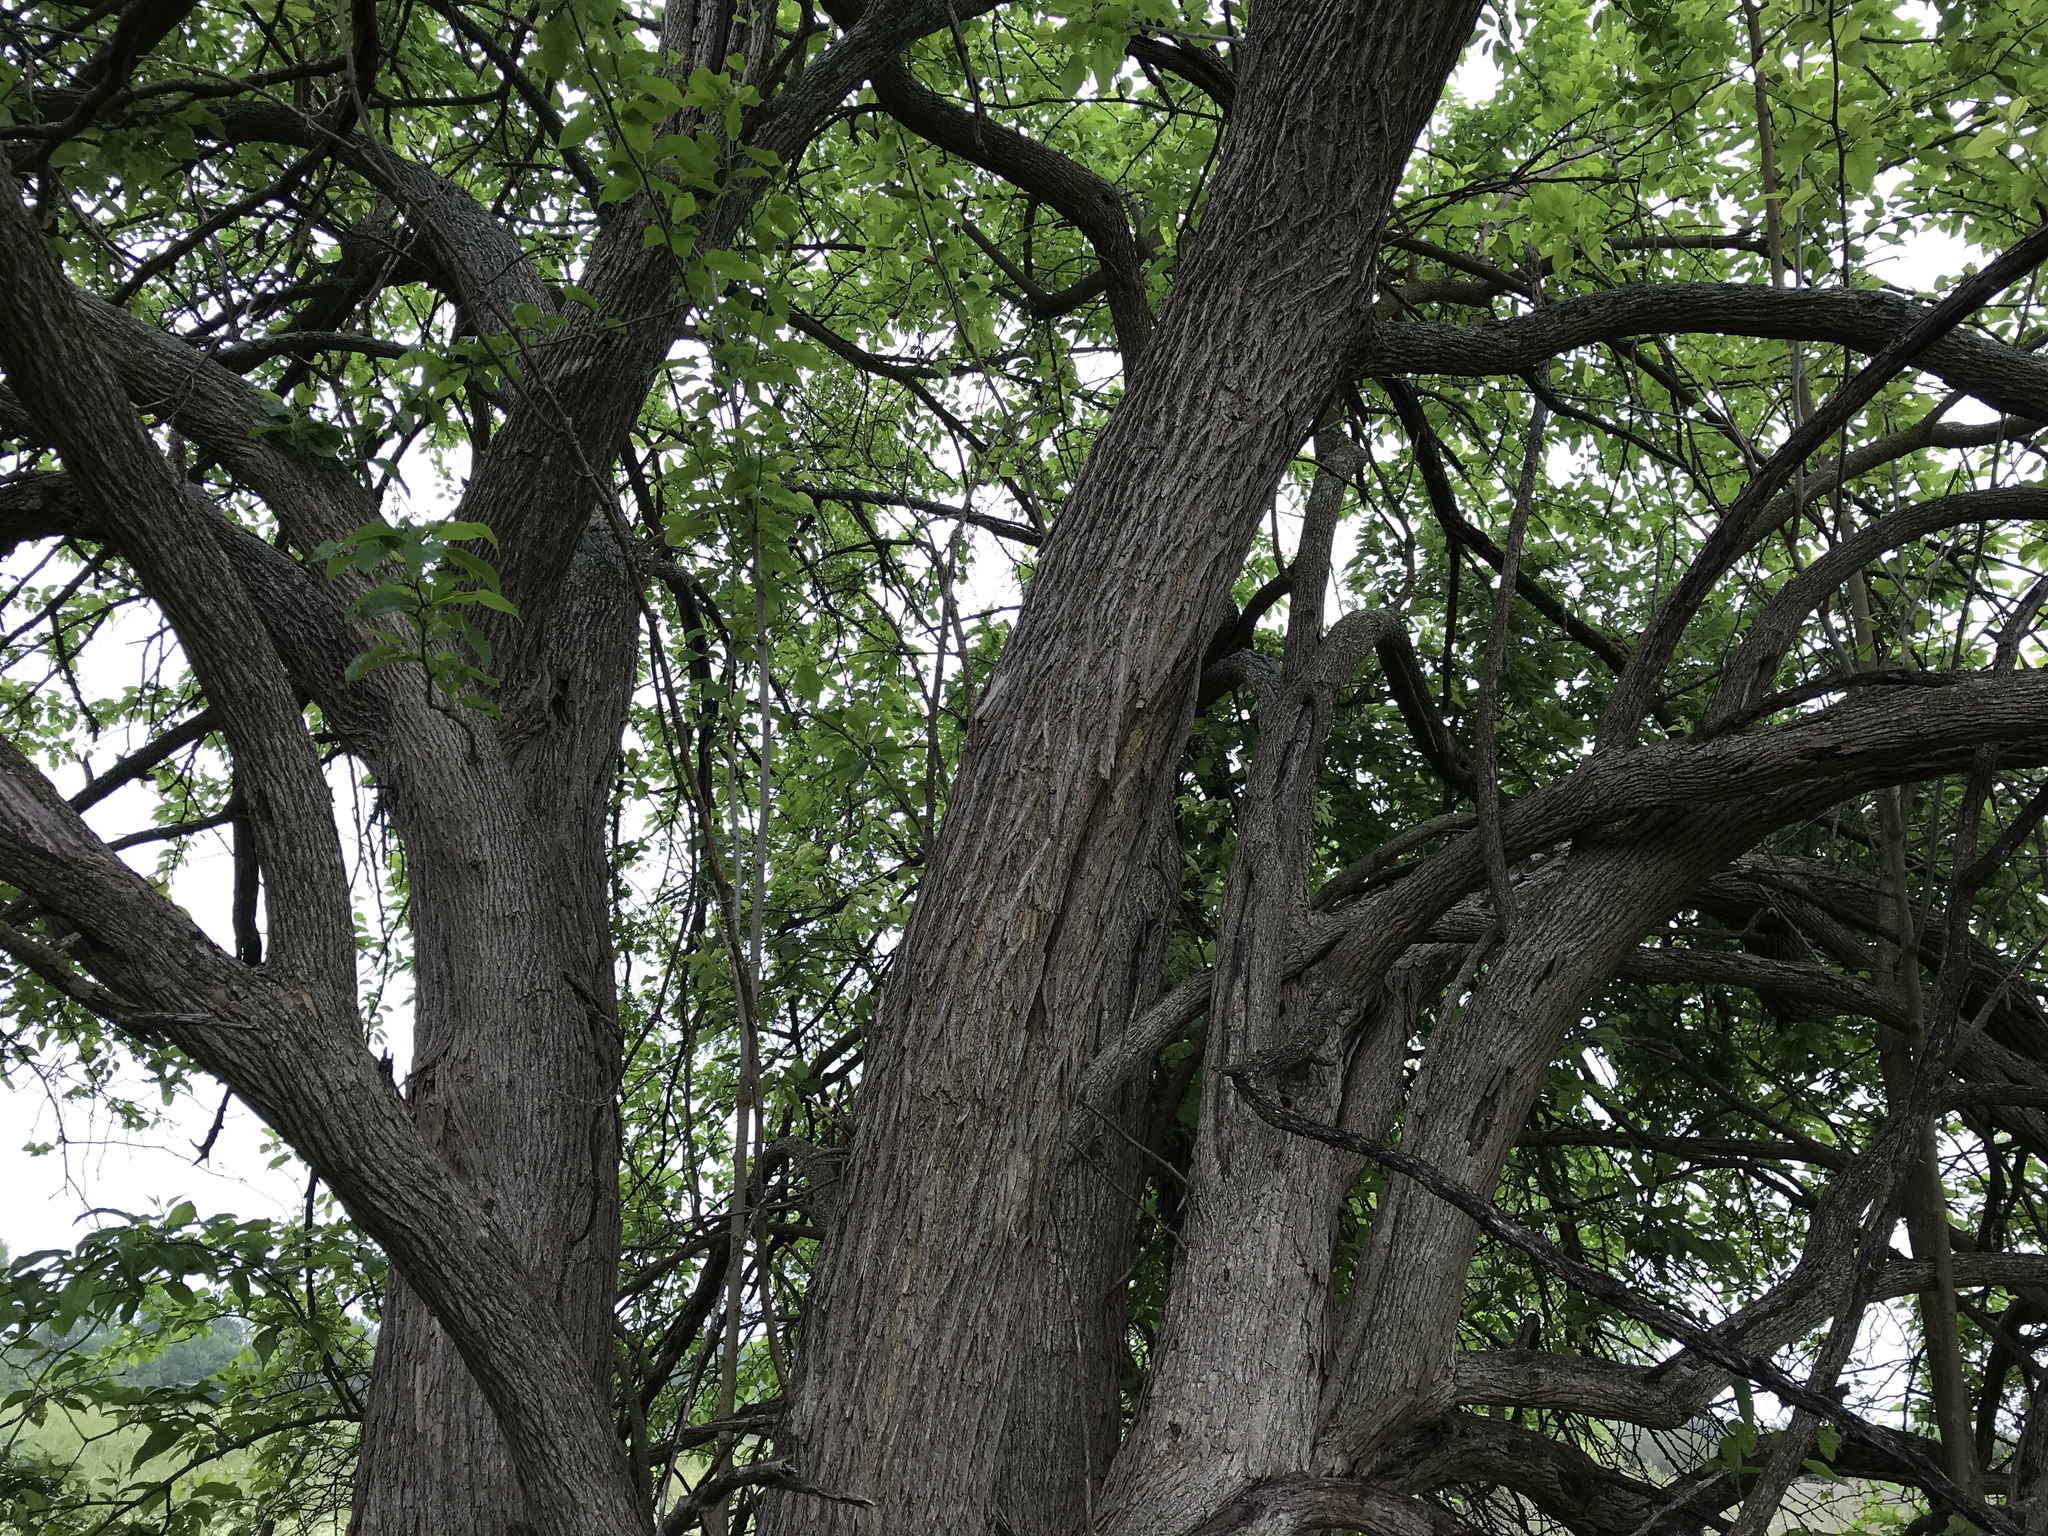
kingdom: Plantae
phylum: Tracheophyta
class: Magnoliopsida
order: Rosales
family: Moraceae
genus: Maclura
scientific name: Maclura pomifera
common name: Osage-orange
